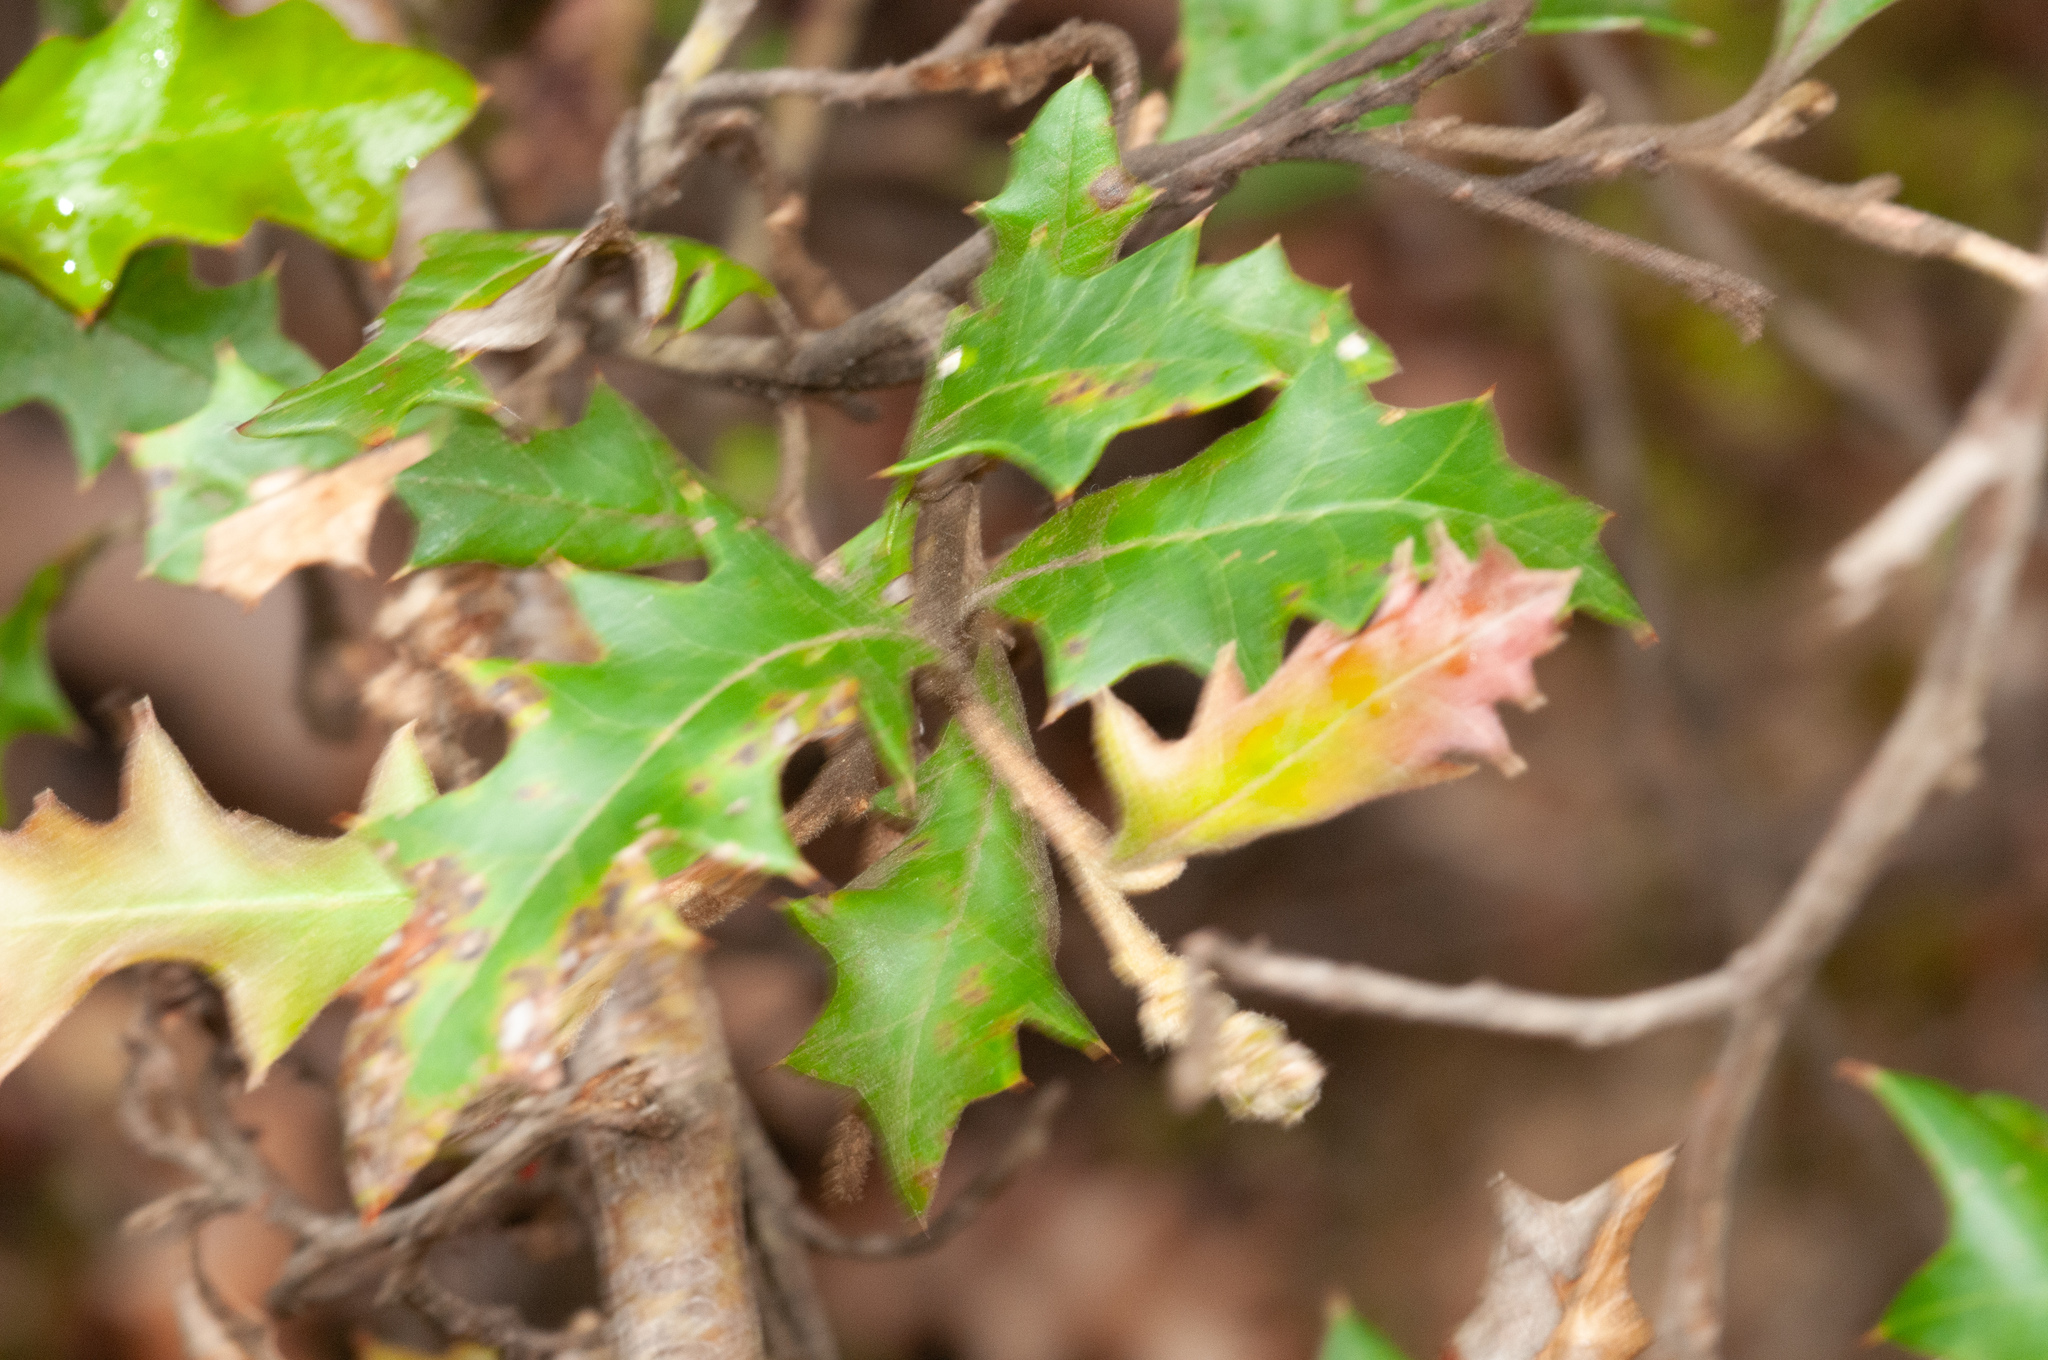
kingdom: Plantae
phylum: Tracheophyta
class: Magnoliopsida
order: Proteales
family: Proteaceae
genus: Grevillea
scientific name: Grevillea aquifolium
